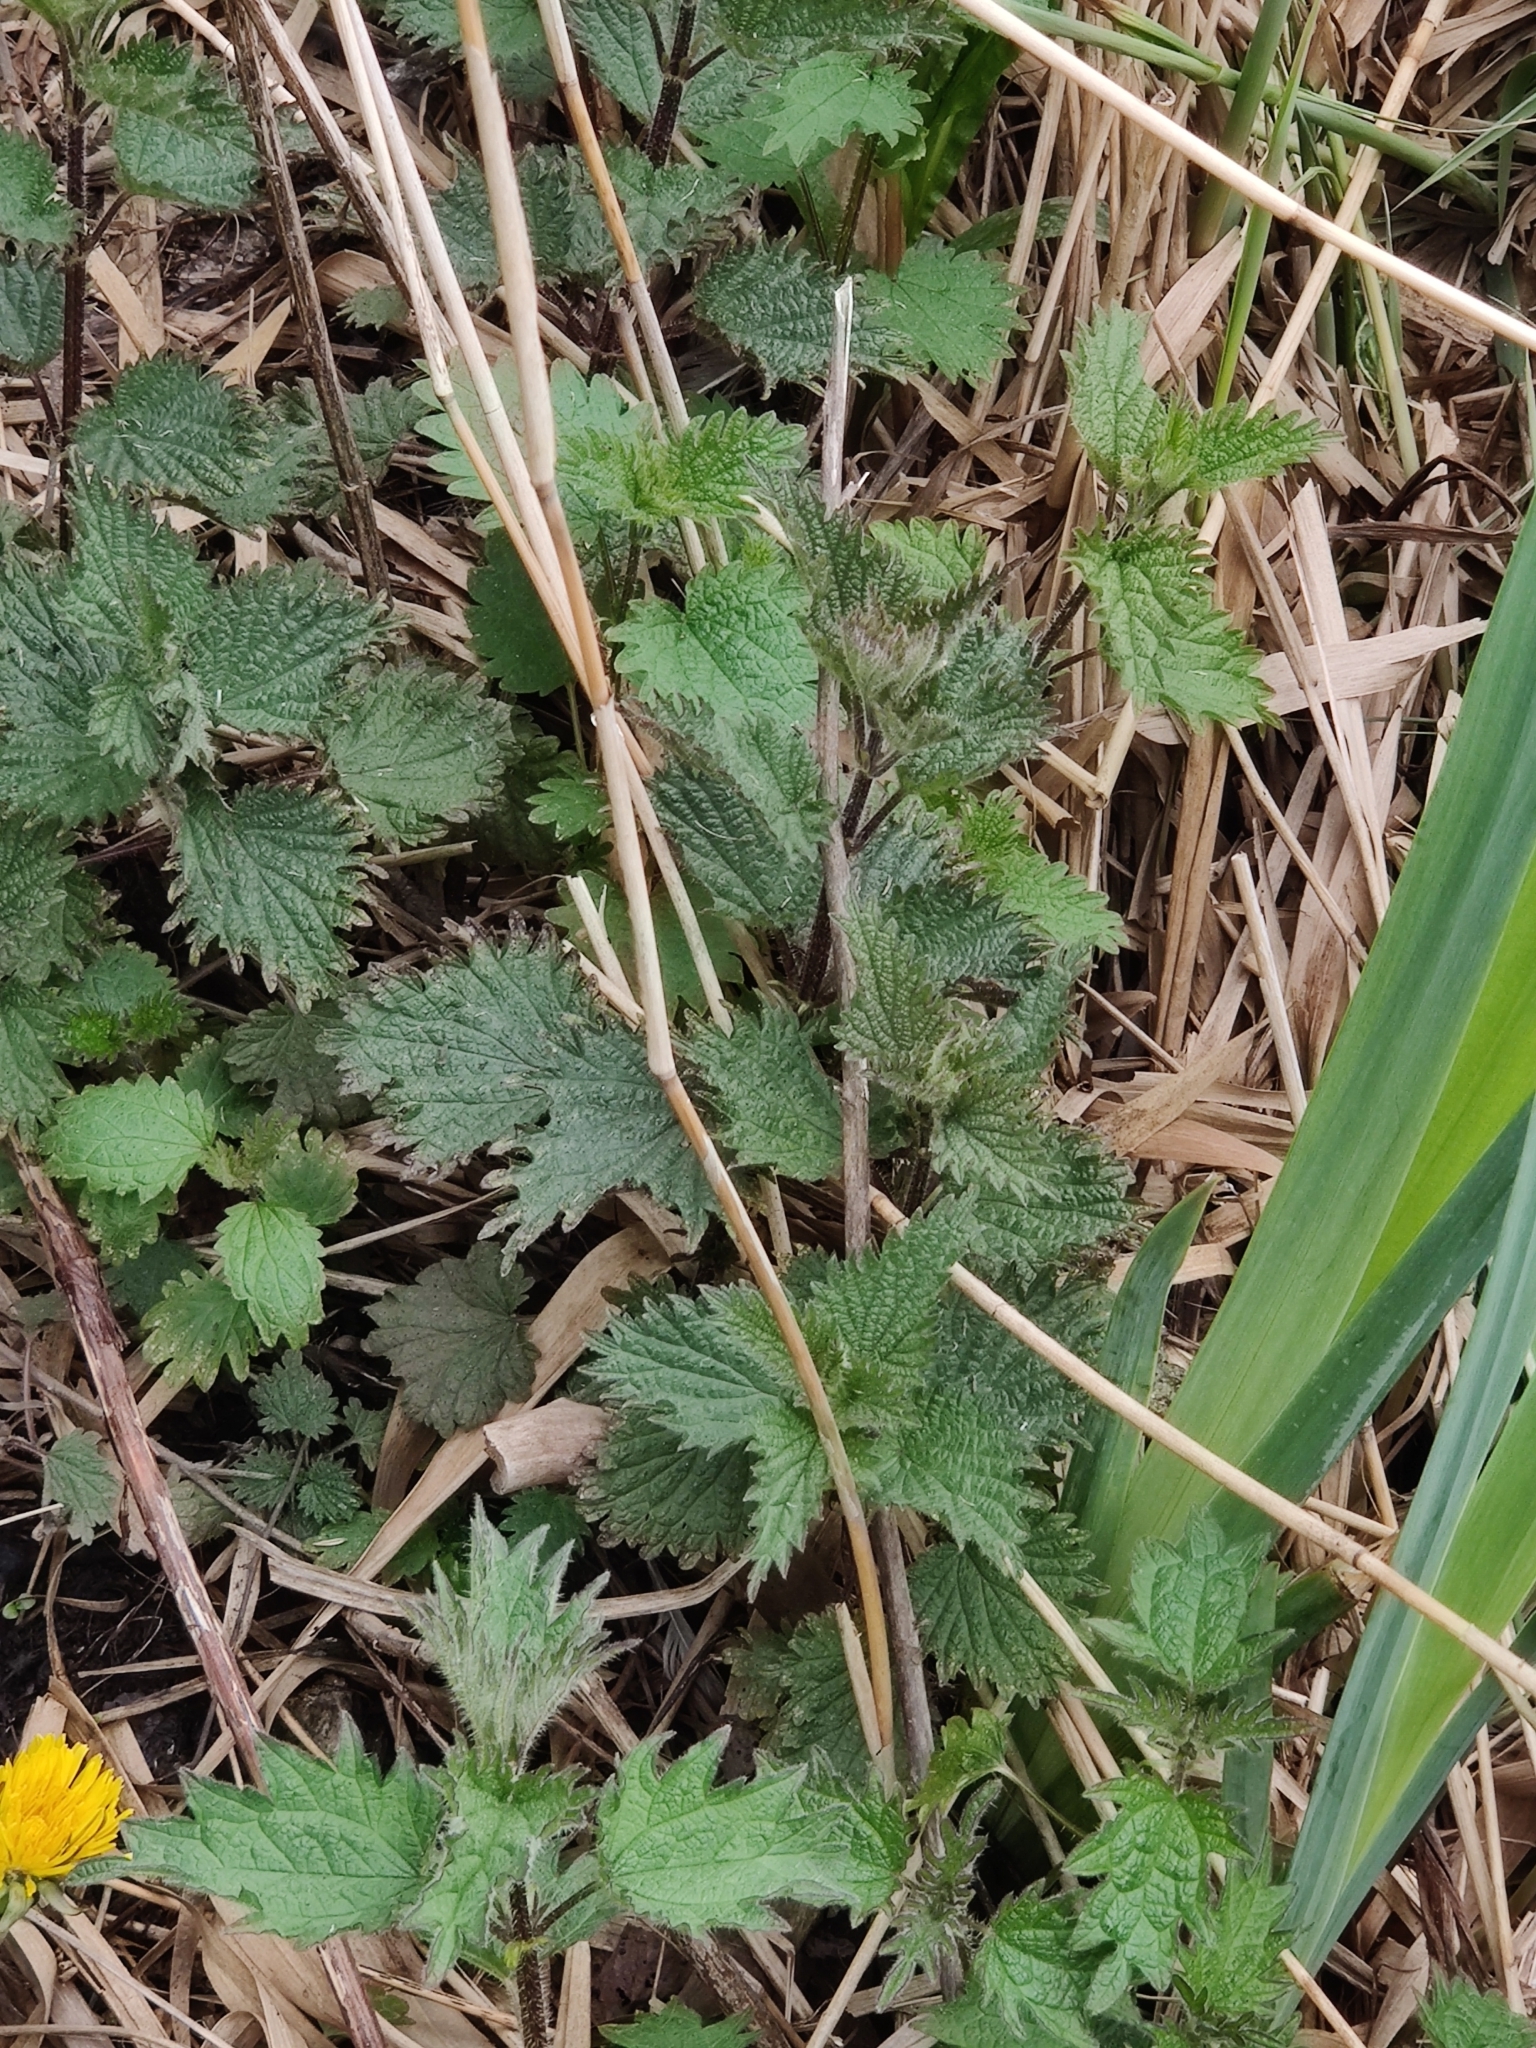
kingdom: Plantae
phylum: Tracheophyta
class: Magnoliopsida
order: Rosales
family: Urticaceae
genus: Urtica
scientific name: Urtica dioica
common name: Common nettle
